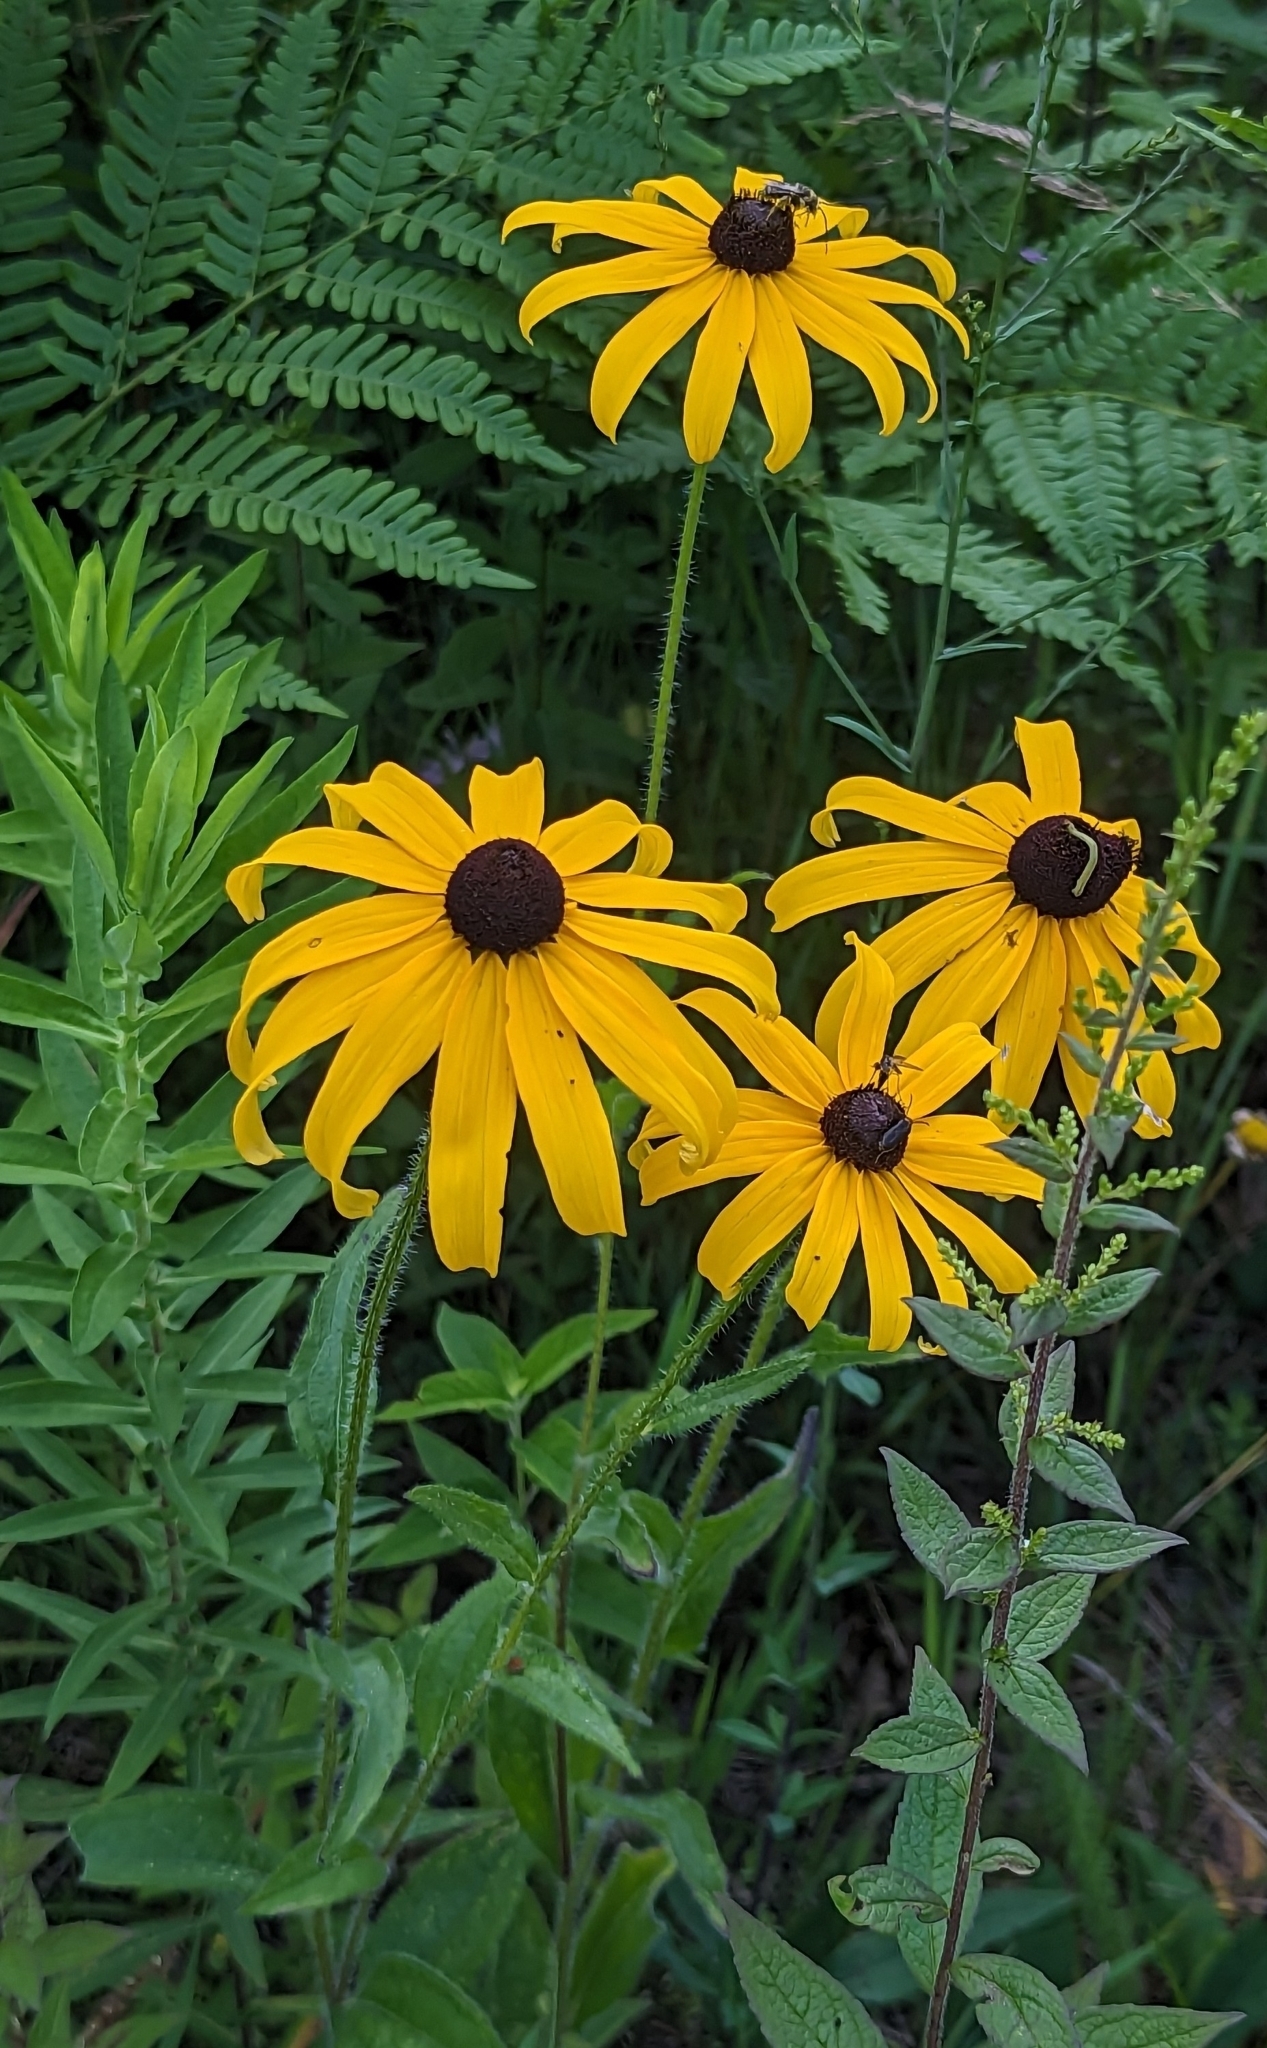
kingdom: Plantae
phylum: Tracheophyta
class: Magnoliopsida
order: Asterales
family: Asteraceae
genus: Rudbeckia
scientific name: Rudbeckia hirta
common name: Black-eyed-susan
